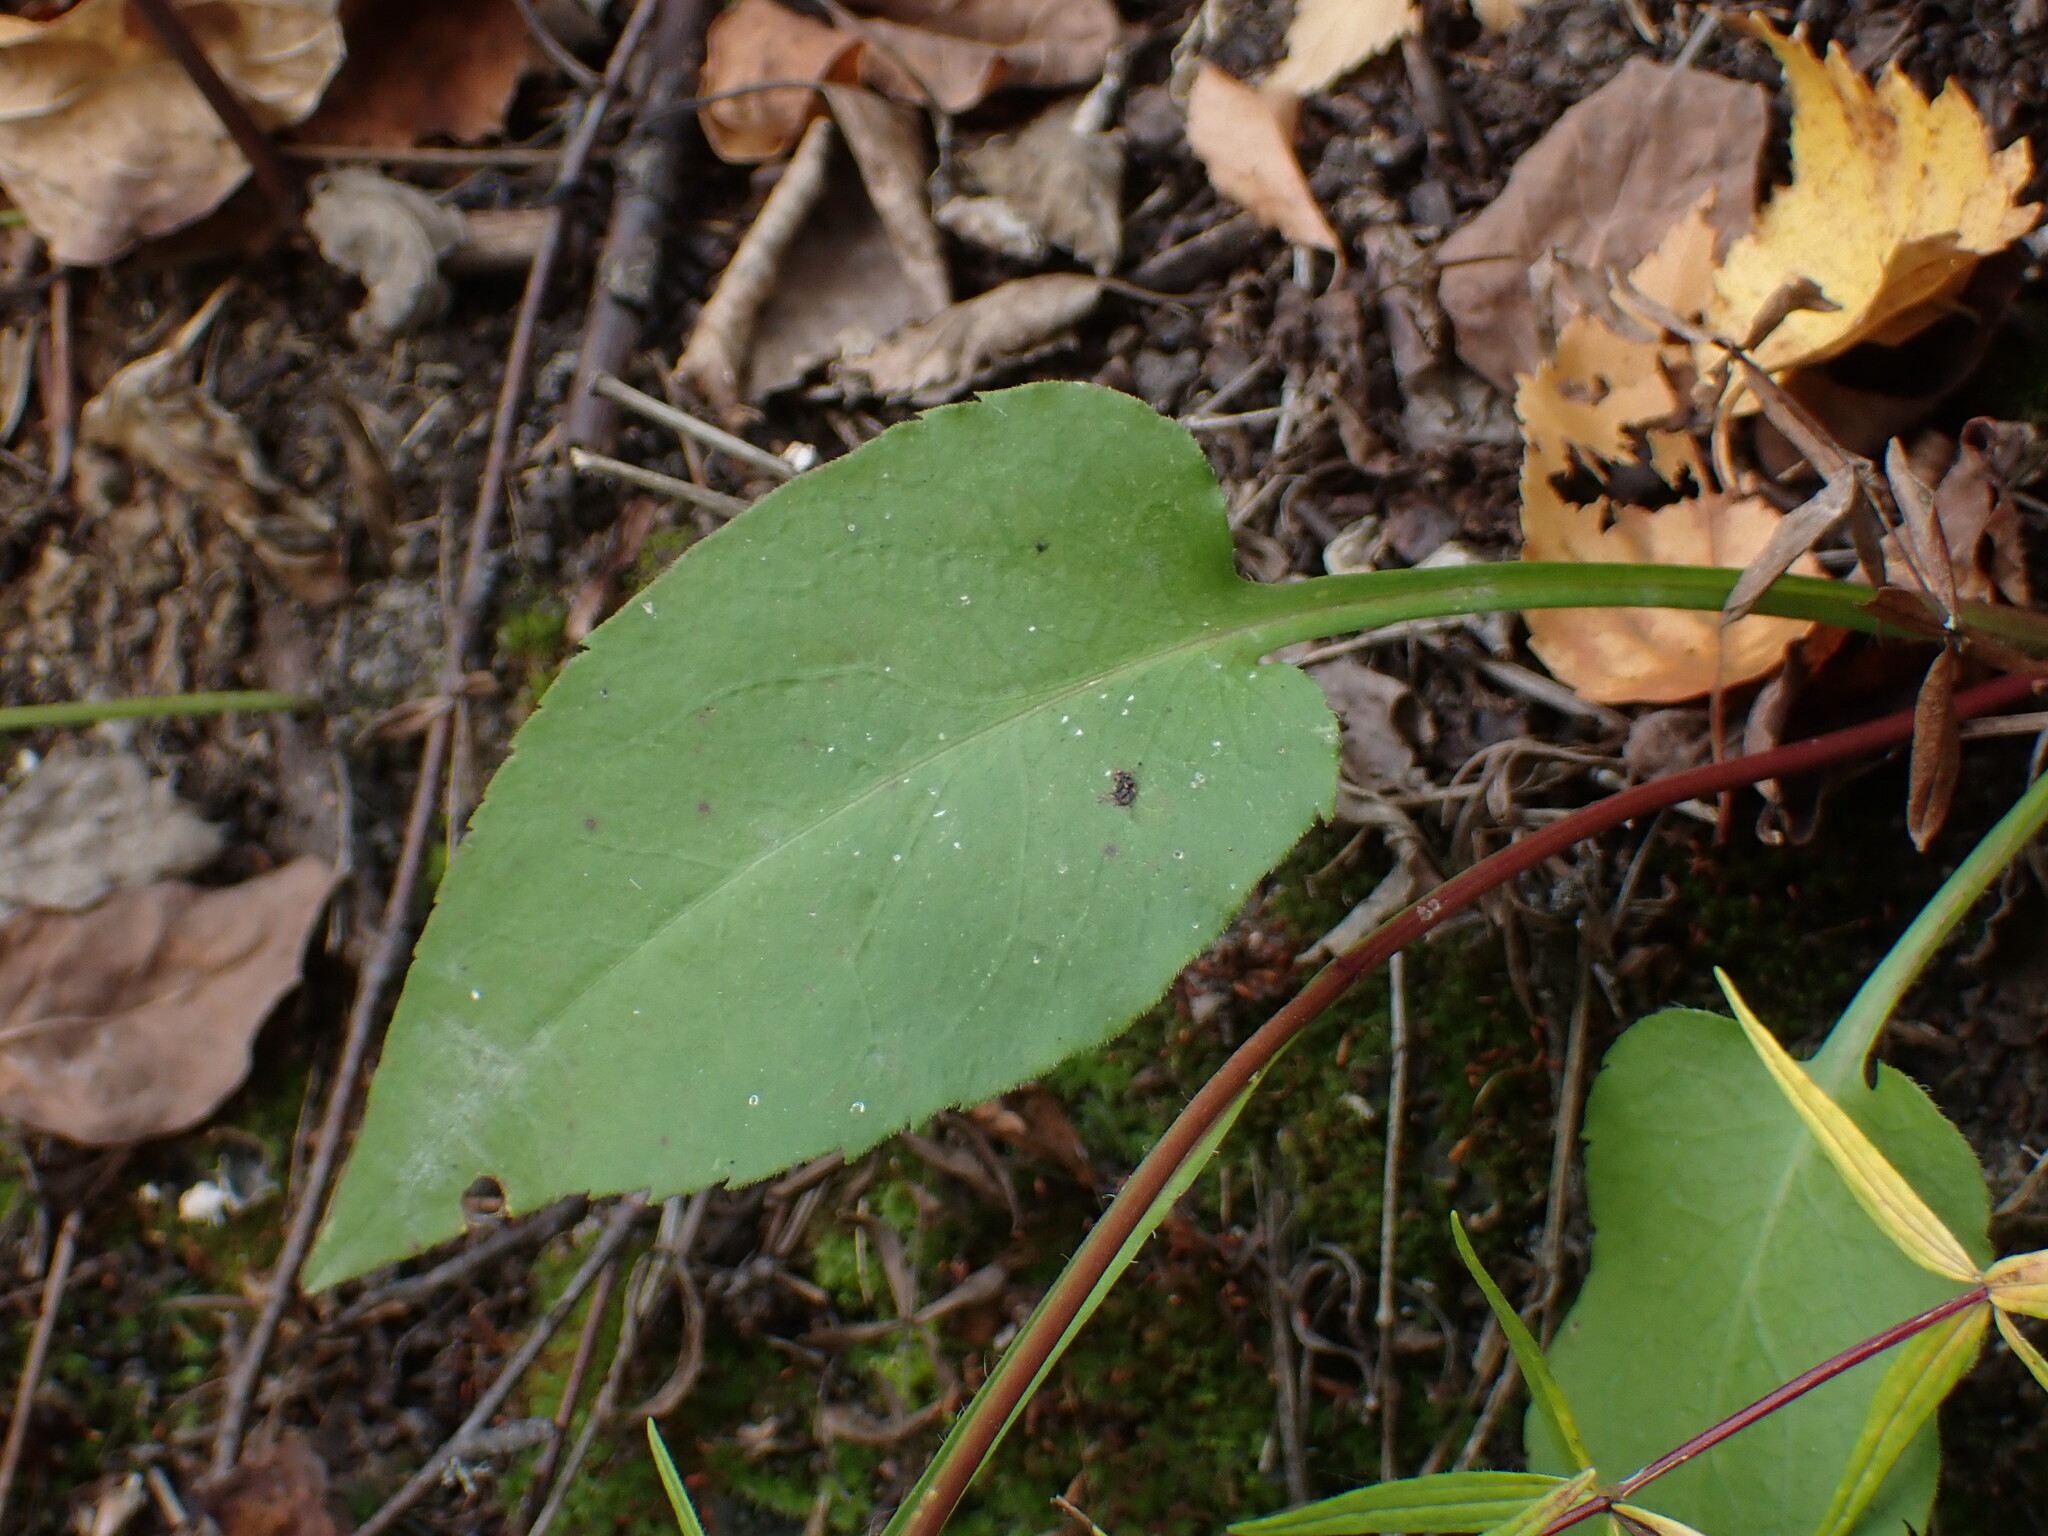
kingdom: Plantae
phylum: Tracheophyta
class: Magnoliopsida
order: Asterales
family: Asteraceae
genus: Symphyotrichum
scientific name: Symphyotrichum ciliolatum
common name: Fringed blue aster
